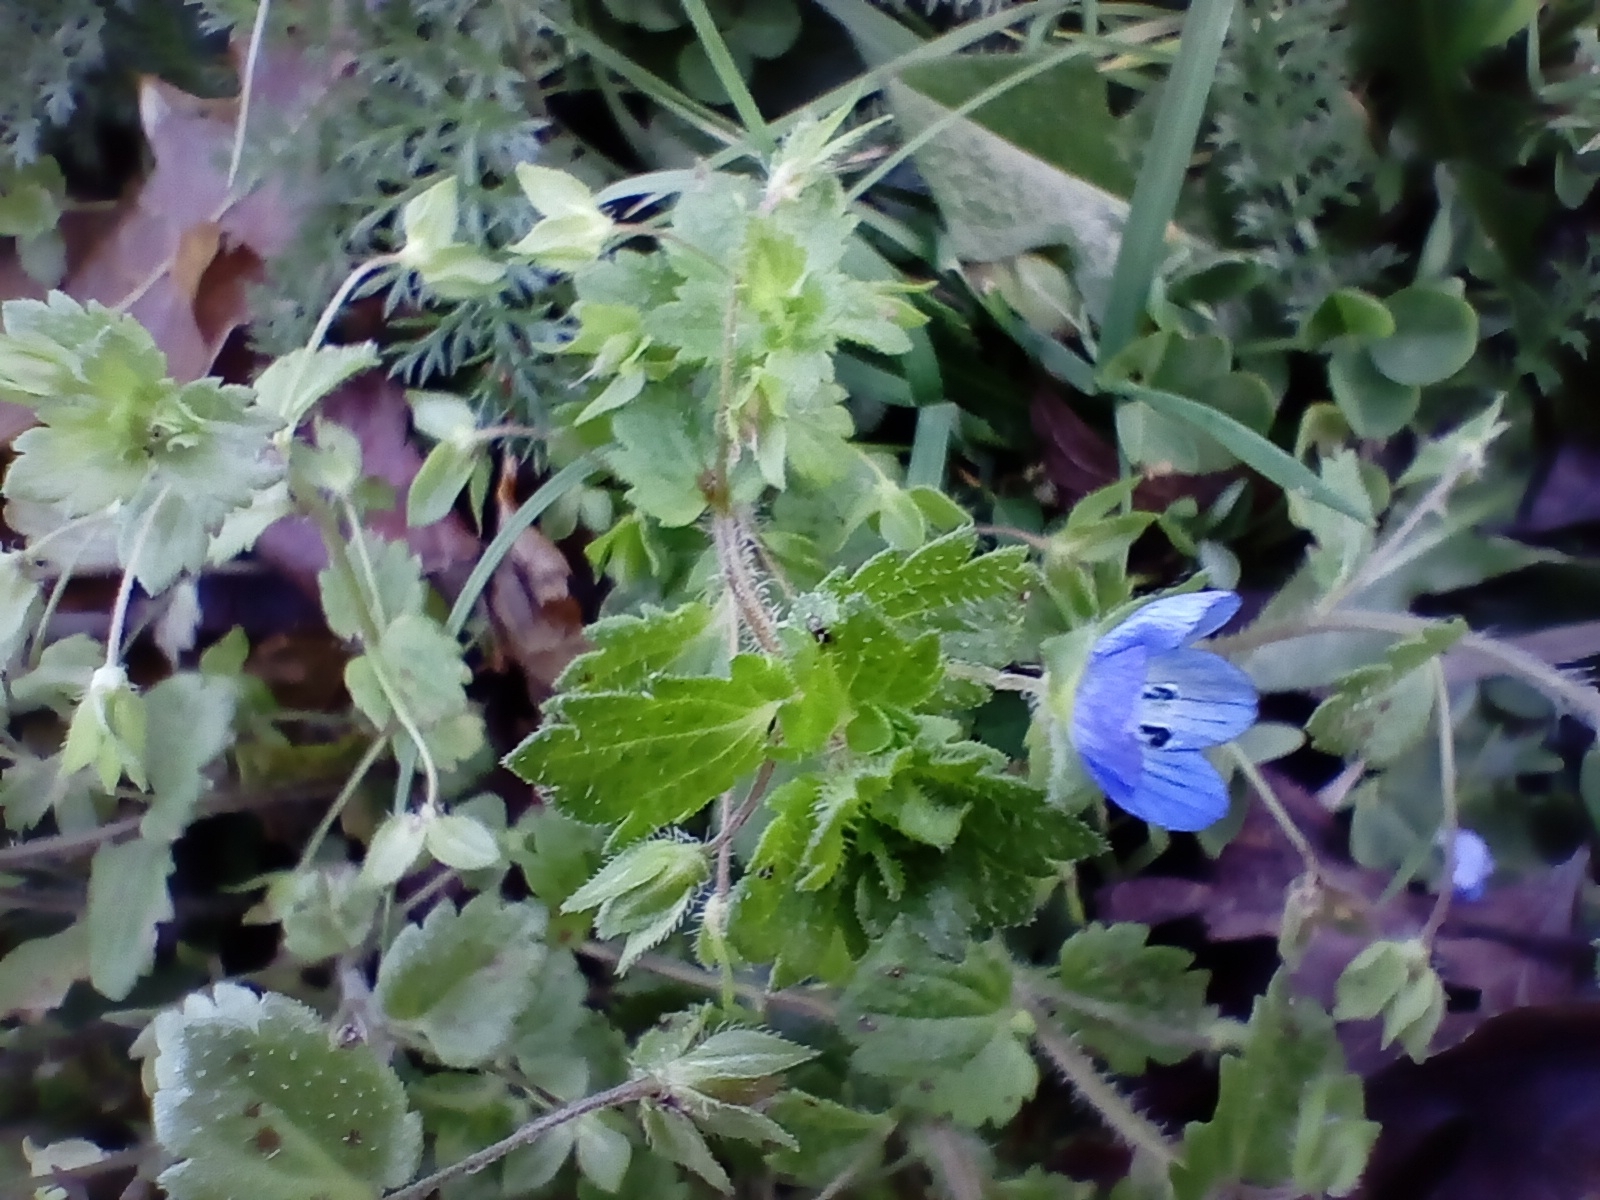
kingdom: Plantae
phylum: Tracheophyta
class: Magnoliopsida
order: Lamiales
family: Plantaginaceae
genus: Veronica
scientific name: Veronica persica
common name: Common field-speedwell
